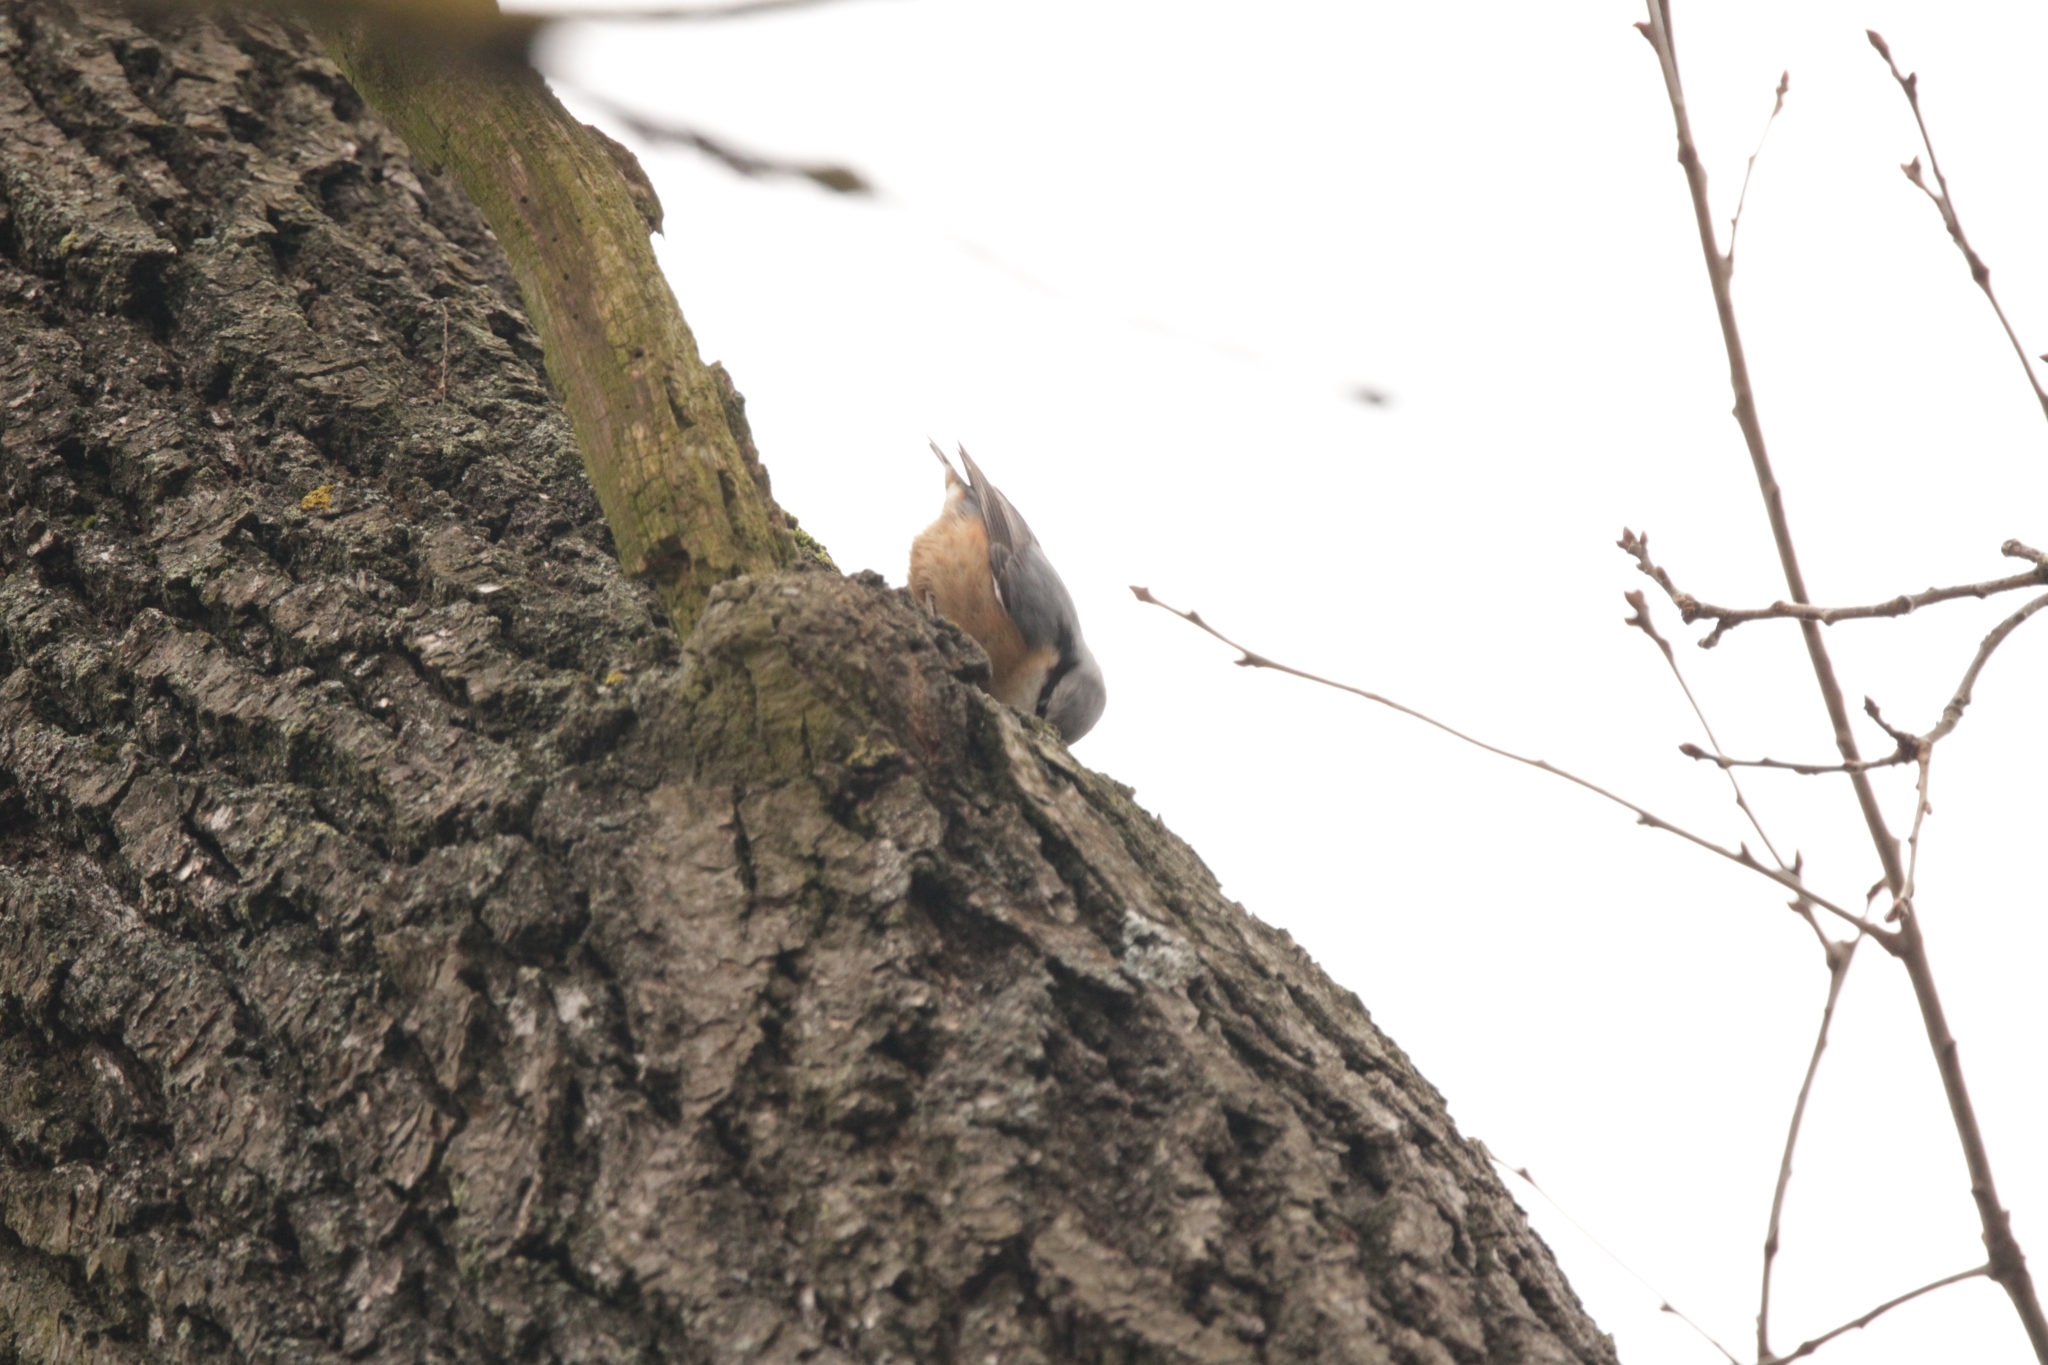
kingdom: Animalia
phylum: Chordata
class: Aves
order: Passeriformes
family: Sittidae
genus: Sitta
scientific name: Sitta europaea
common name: Eurasian nuthatch
